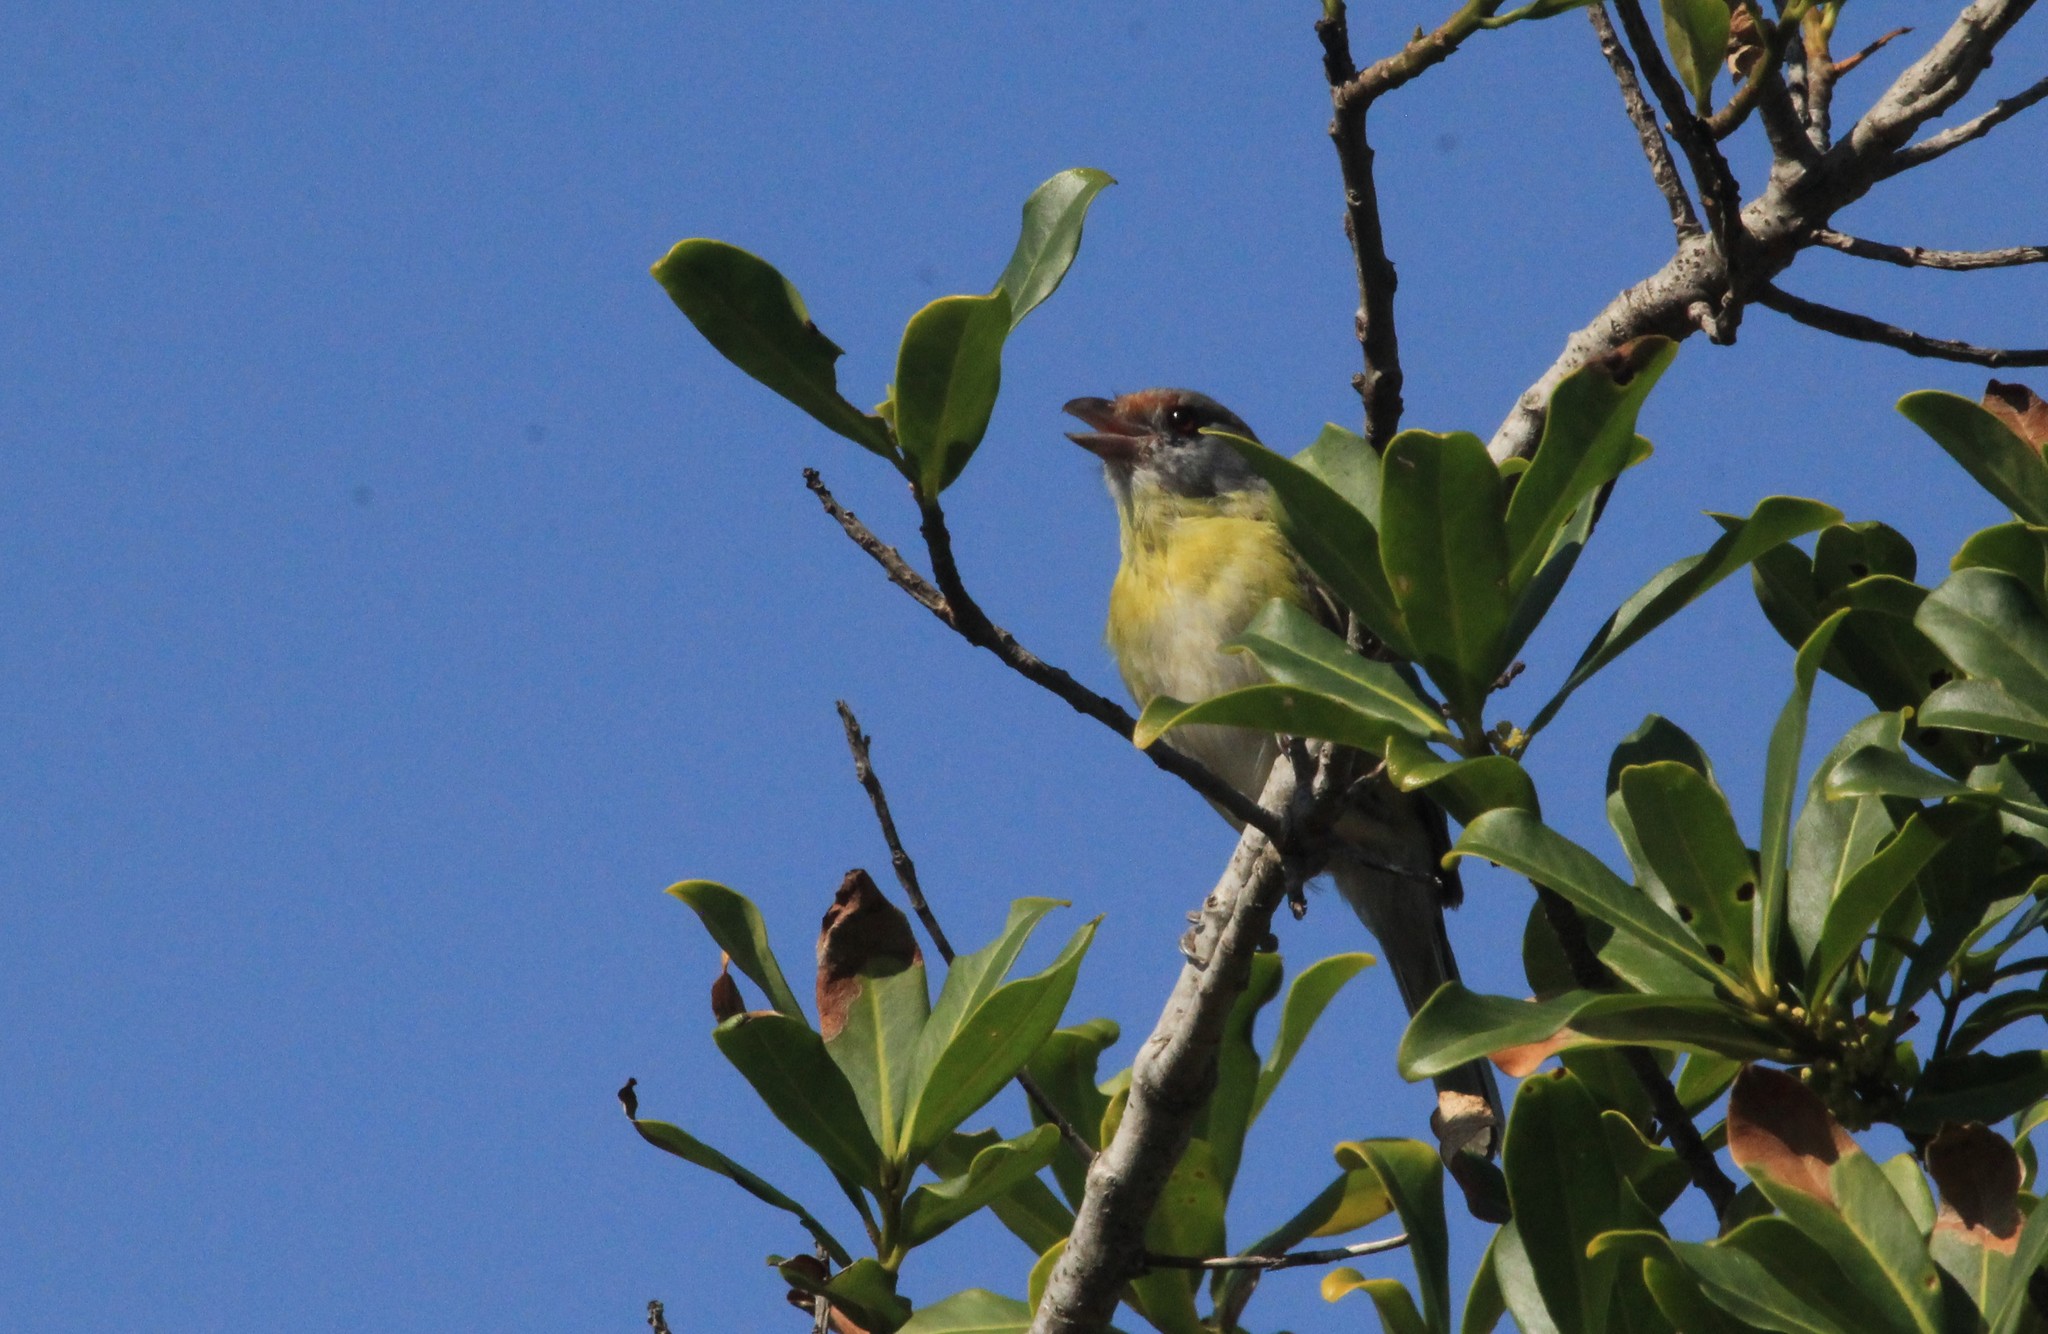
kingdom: Animalia
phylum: Chordata
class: Aves
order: Passeriformes
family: Vireonidae
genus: Cyclarhis
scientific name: Cyclarhis gujanensis
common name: Rufous-browed peppershrike
